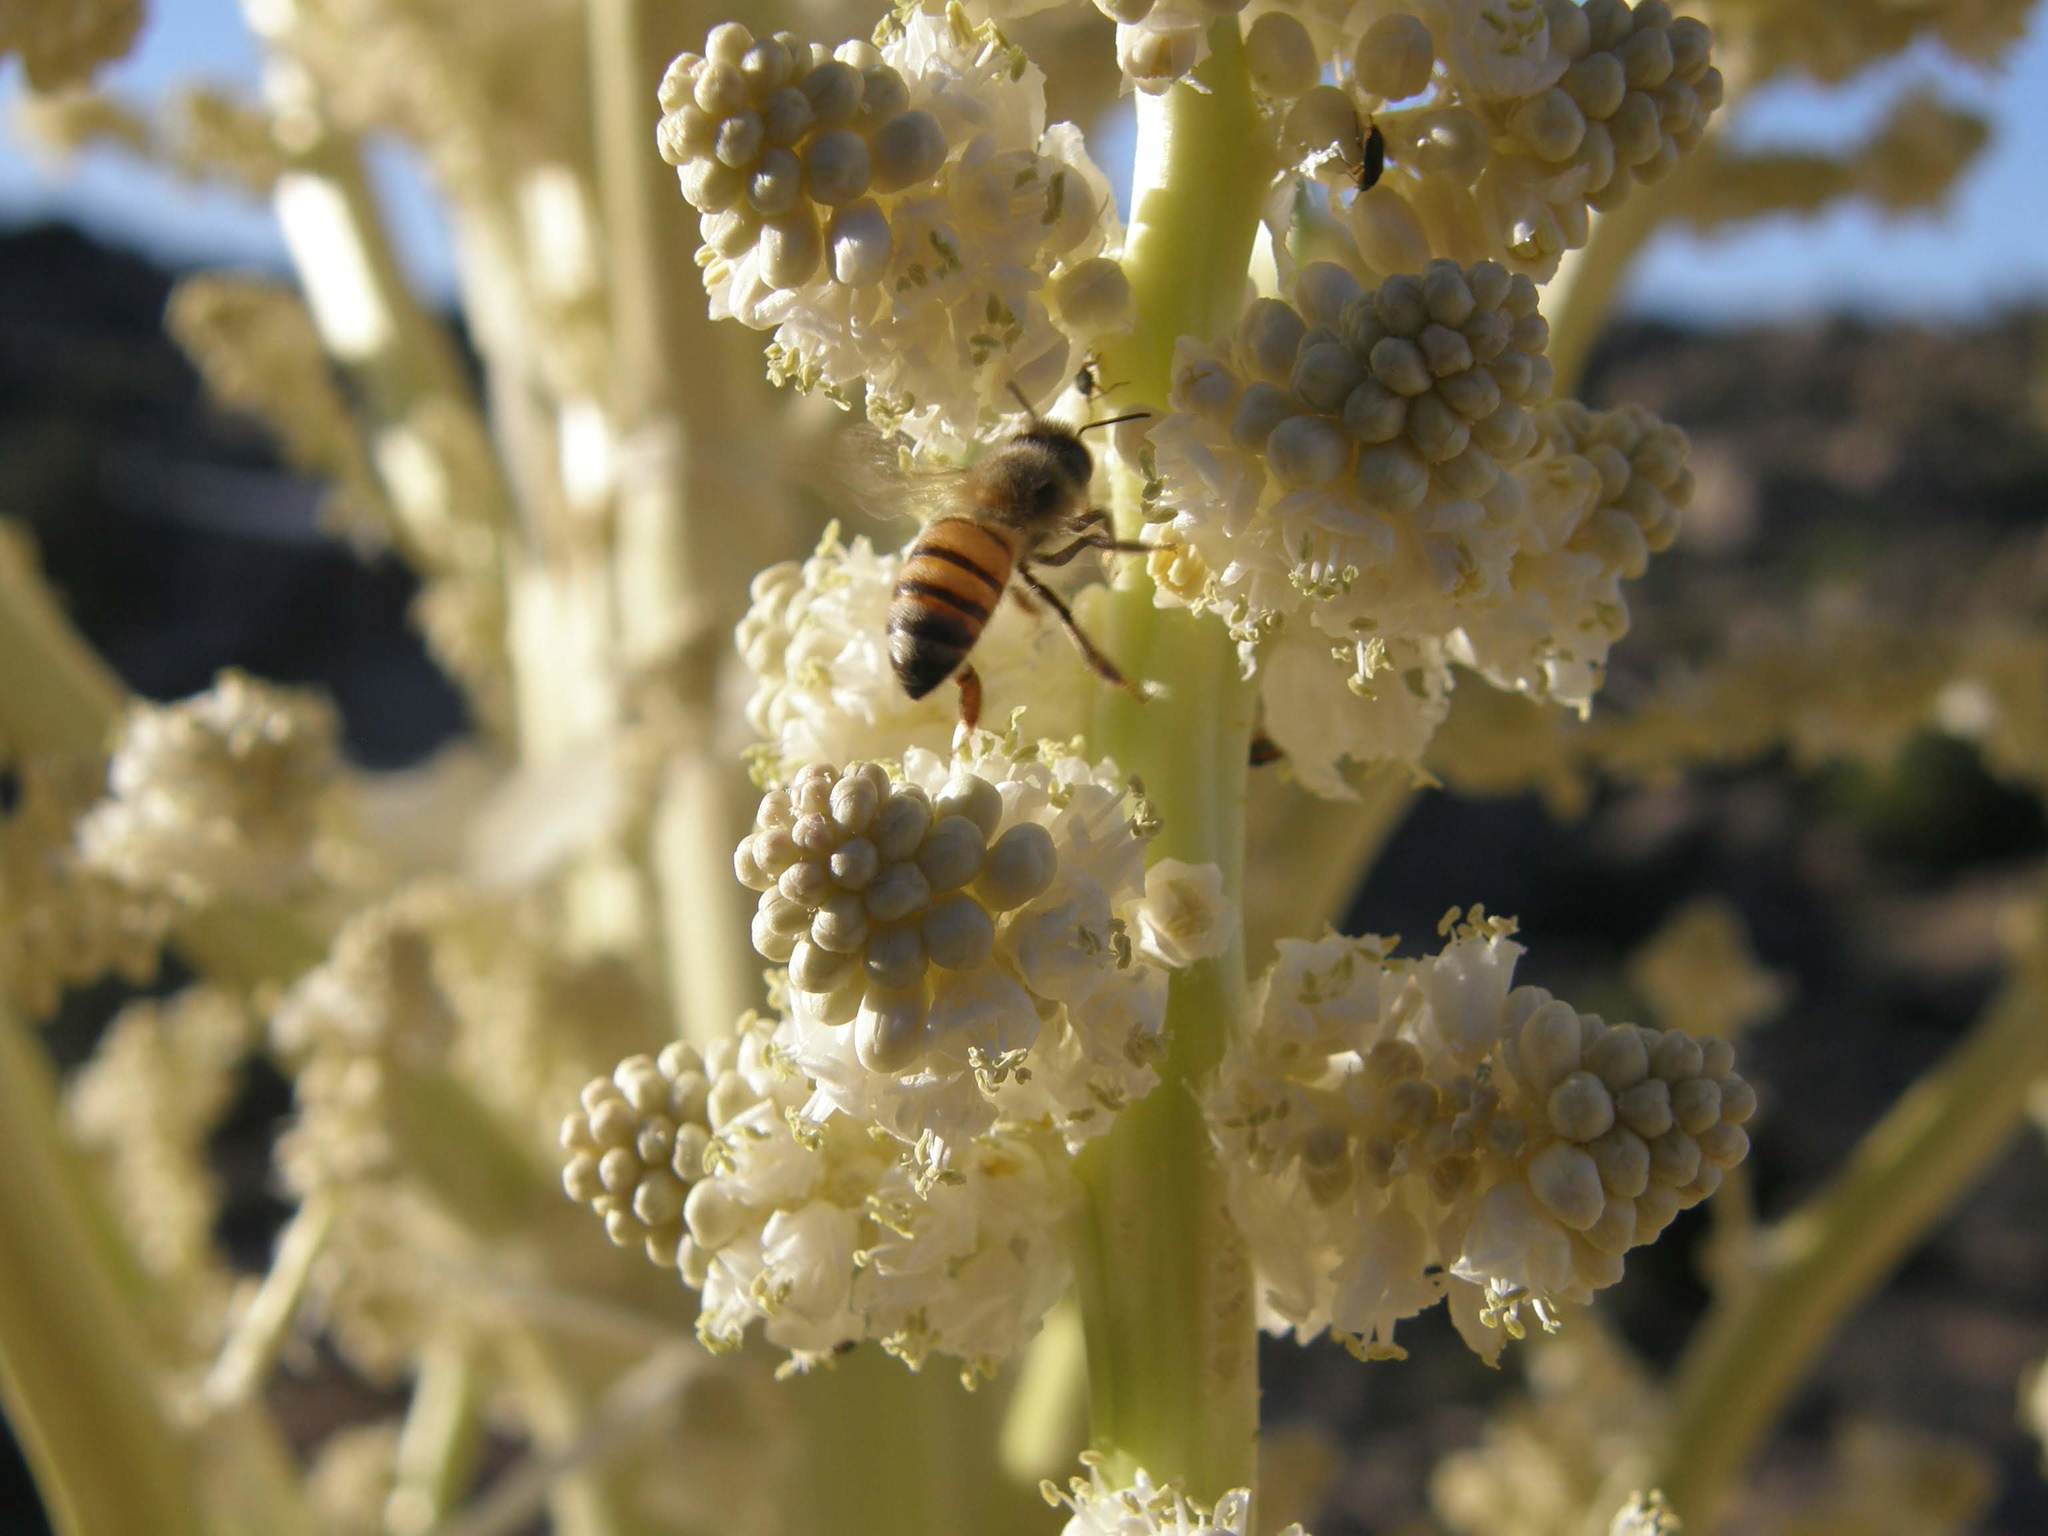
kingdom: Plantae
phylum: Tracheophyta
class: Liliopsida
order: Asparagales
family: Asparagaceae
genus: Nolina
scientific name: Nolina parryi
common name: Parry nolina
